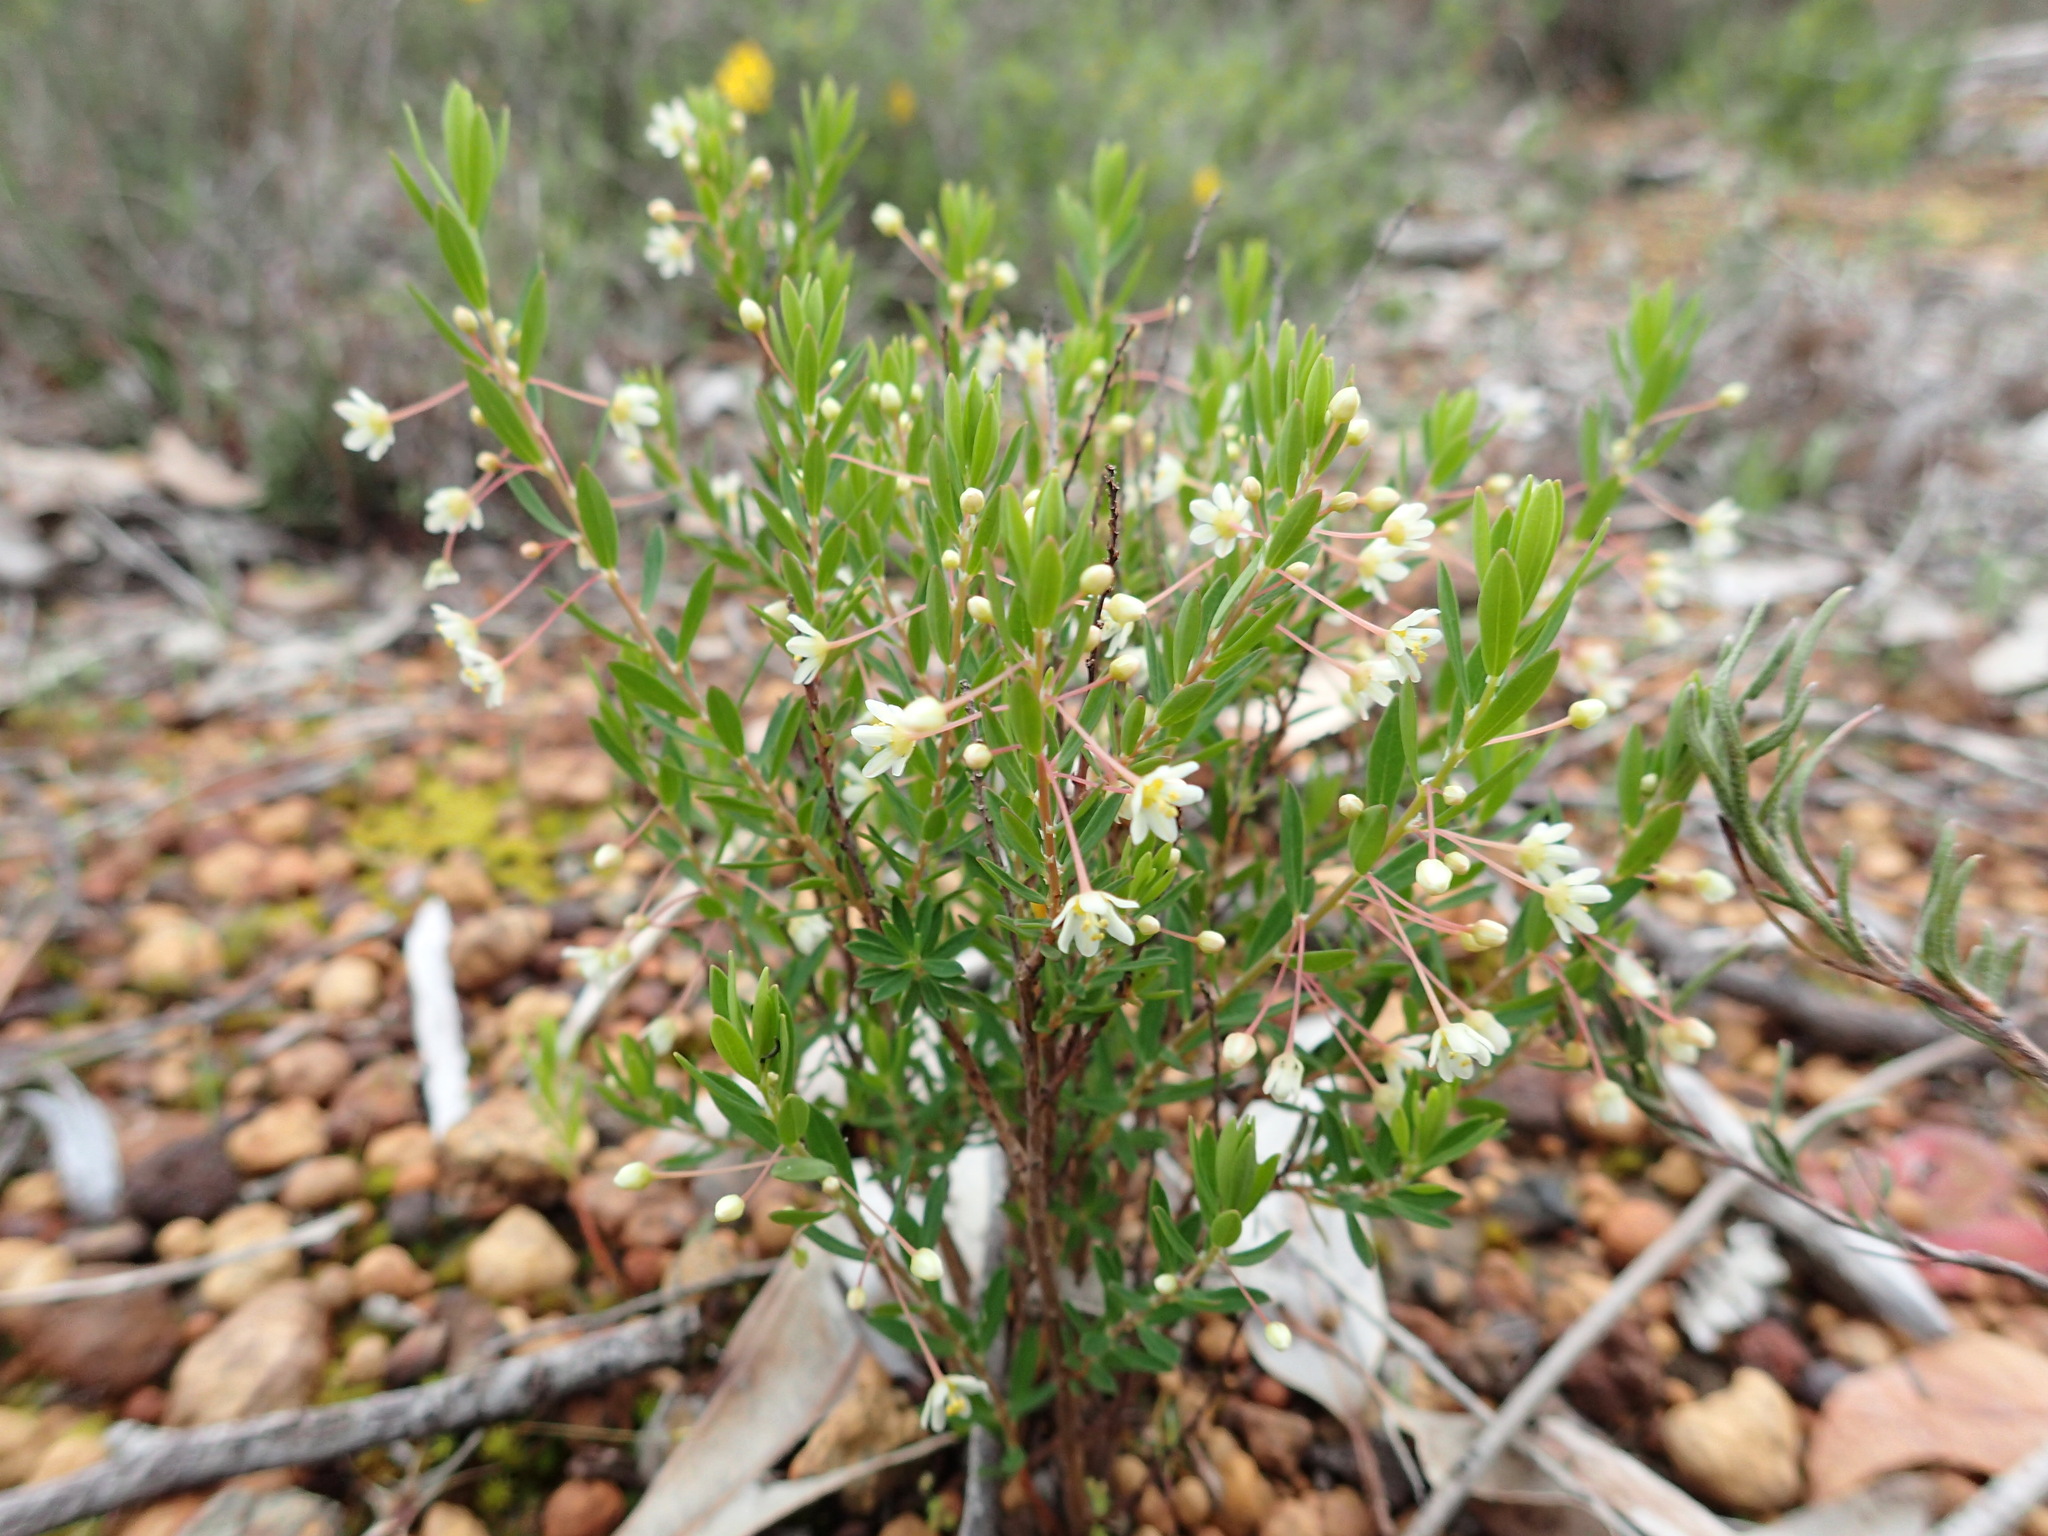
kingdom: Plantae
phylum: Tracheophyta
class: Magnoliopsida
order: Malpighiales
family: Phyllanthaceae
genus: Phyllanthus
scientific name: Phyllanthus calycinus
